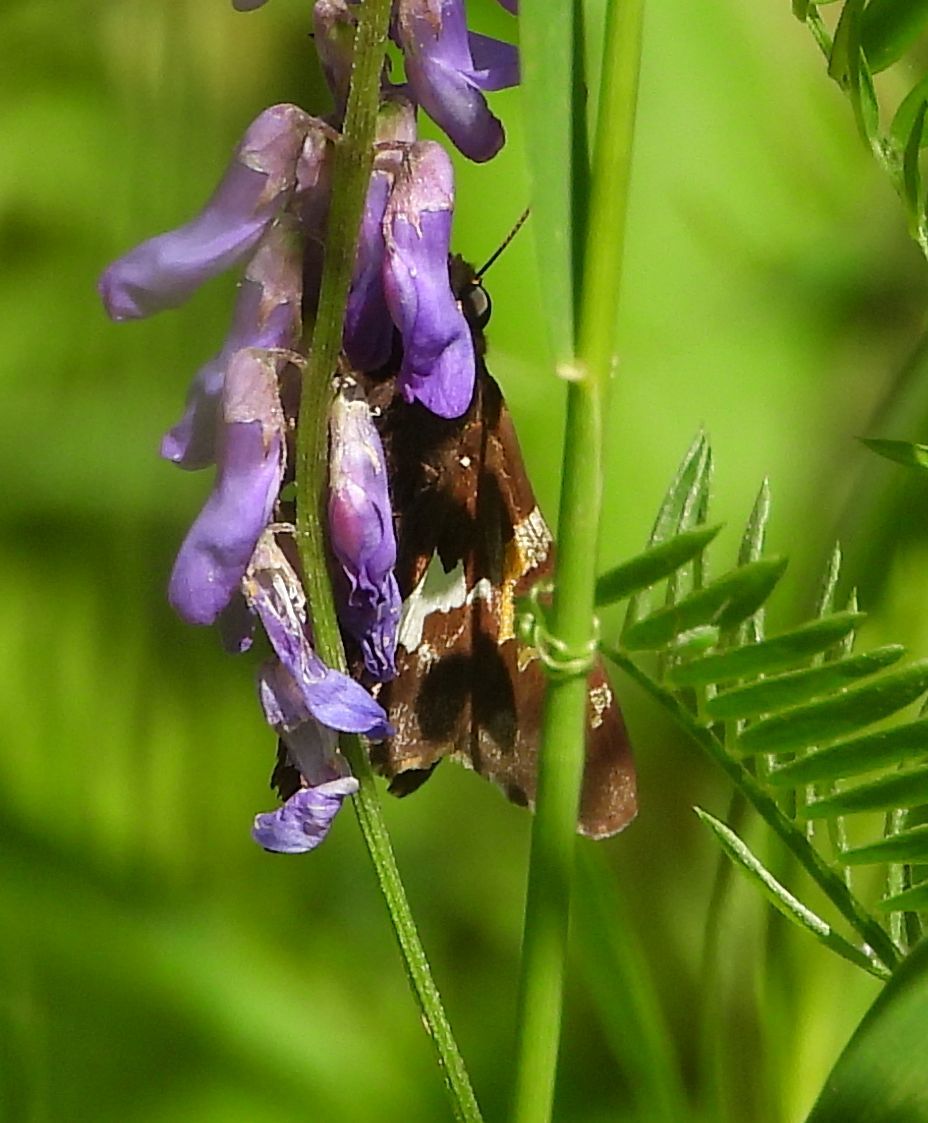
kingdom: Animalia
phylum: Arthropoda
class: Insecta
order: Lepidoptera
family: Hesperiidae
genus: Epargyreus
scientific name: Epargyreus clarus
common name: Silver-spotted skipper
